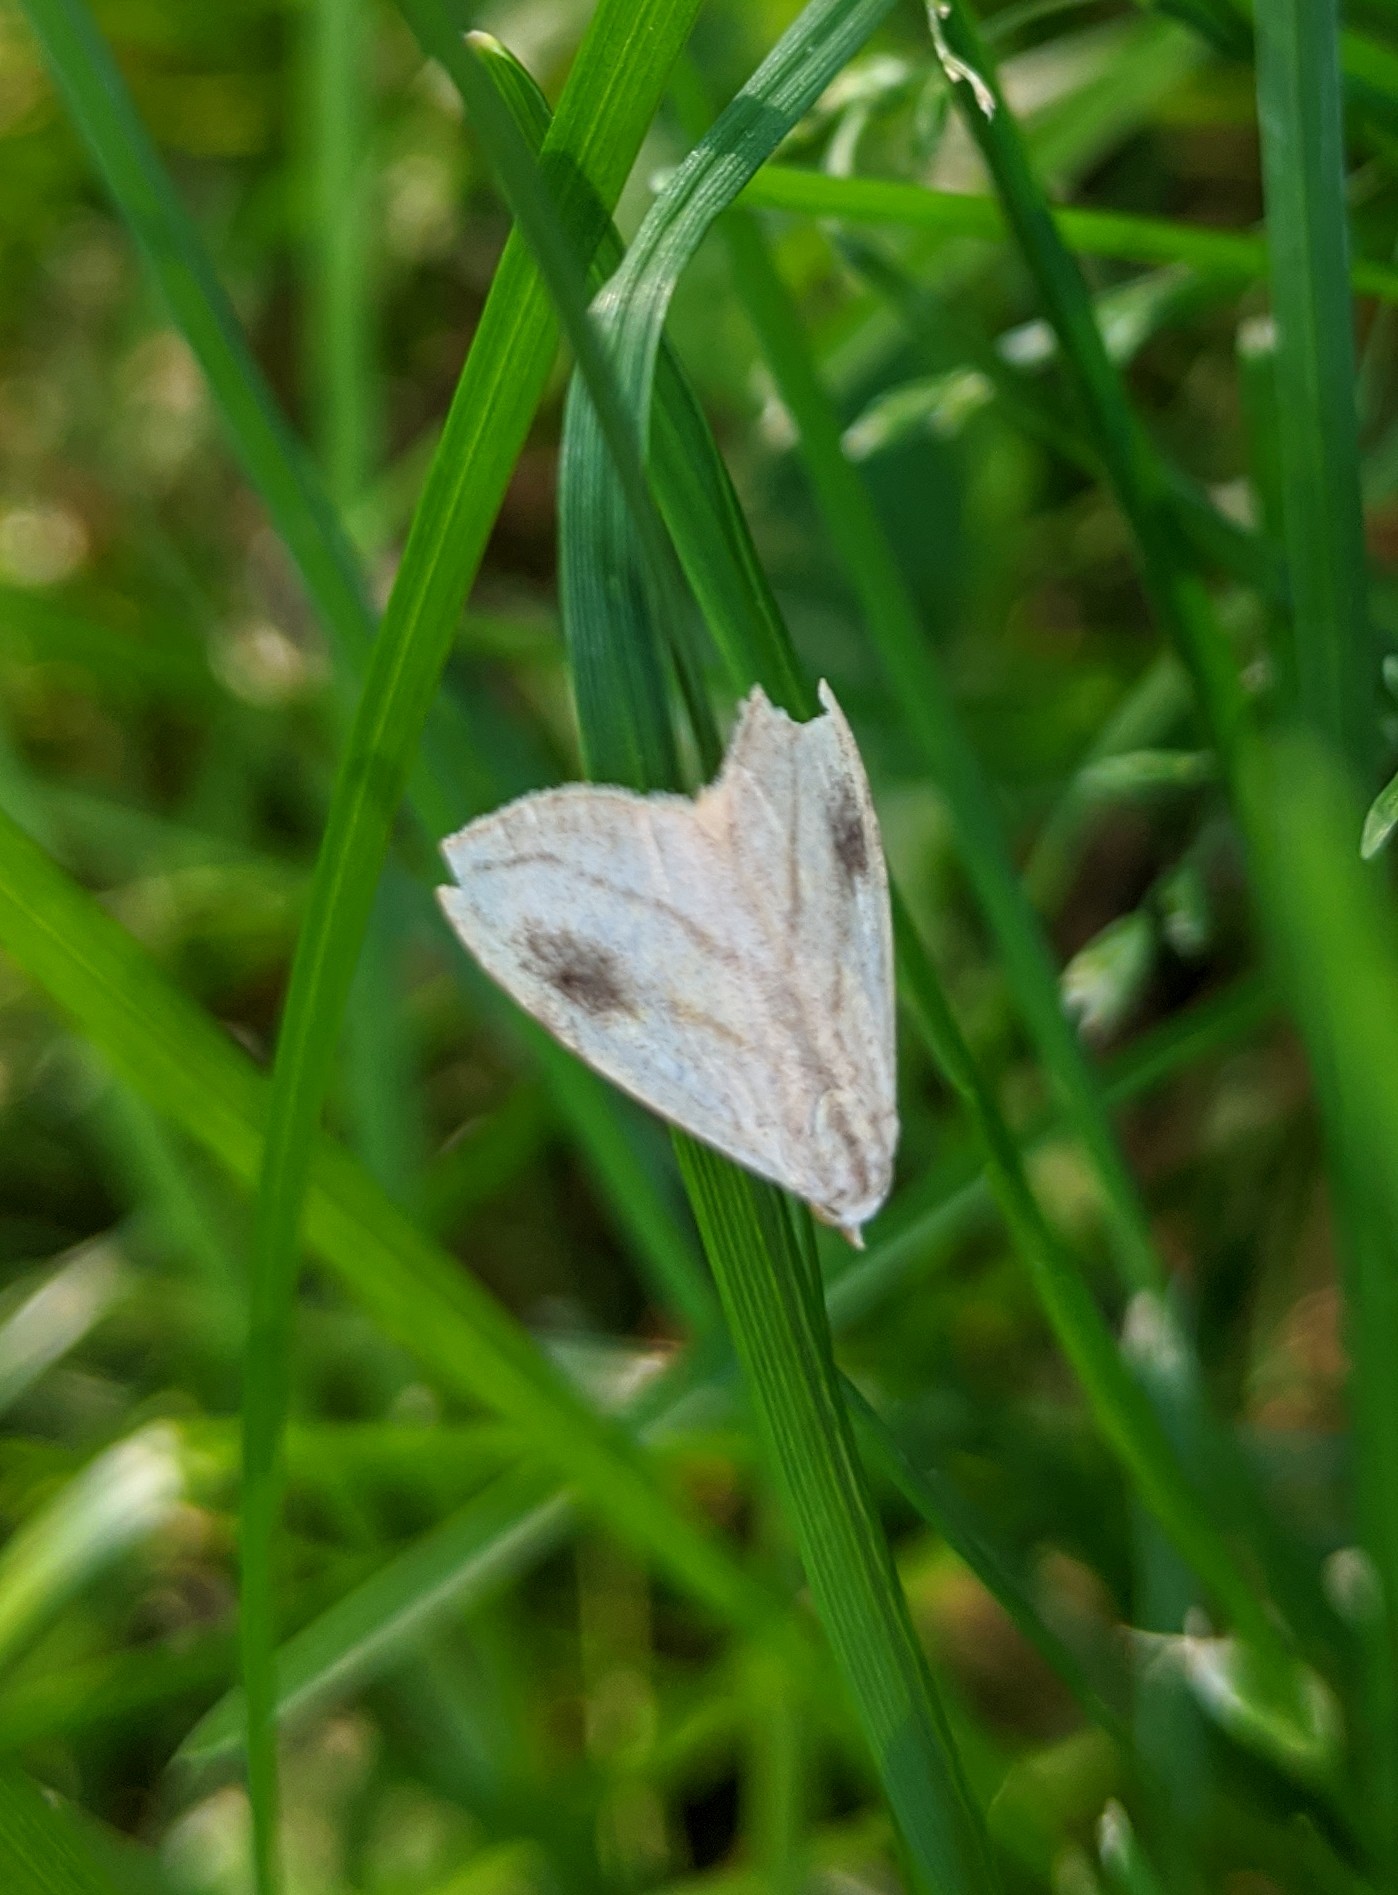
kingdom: Animalia
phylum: Arthropoda
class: Insecta
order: Lepidoptera
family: Erebidae
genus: Rivula
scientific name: Rivula propinqualis
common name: Spotted grass moth
